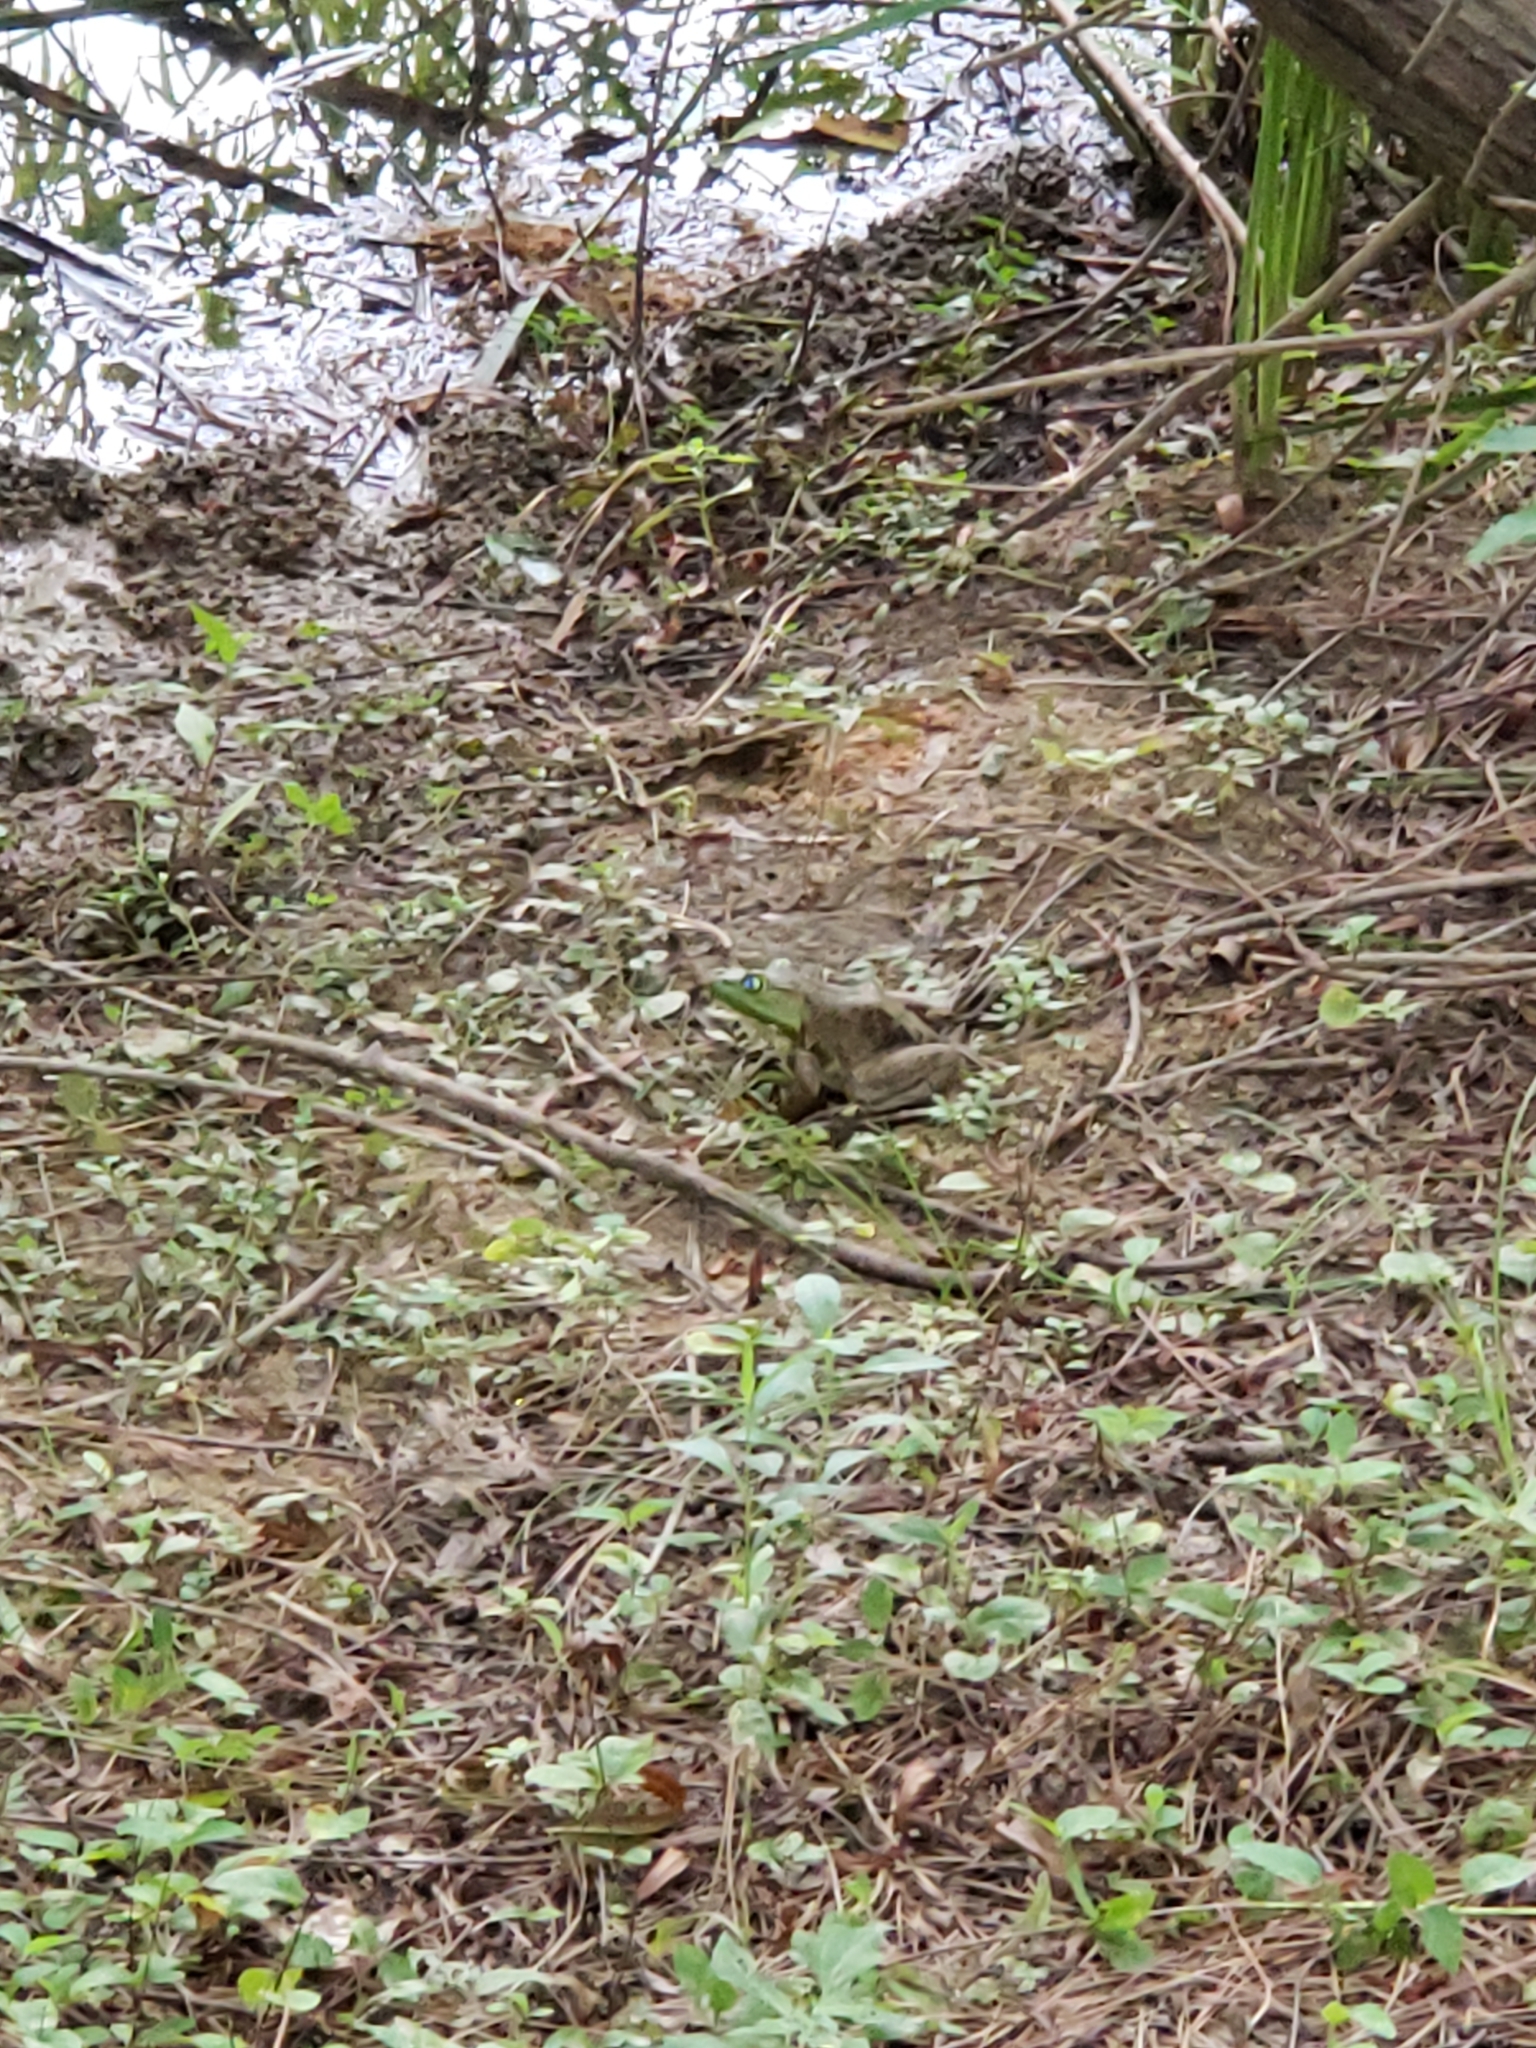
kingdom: Animalia
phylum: Chordata
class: Amphibia
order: Anura
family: Ranidae
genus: Lithobates
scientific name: Lithobates catesbeianus
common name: American bullfrog
